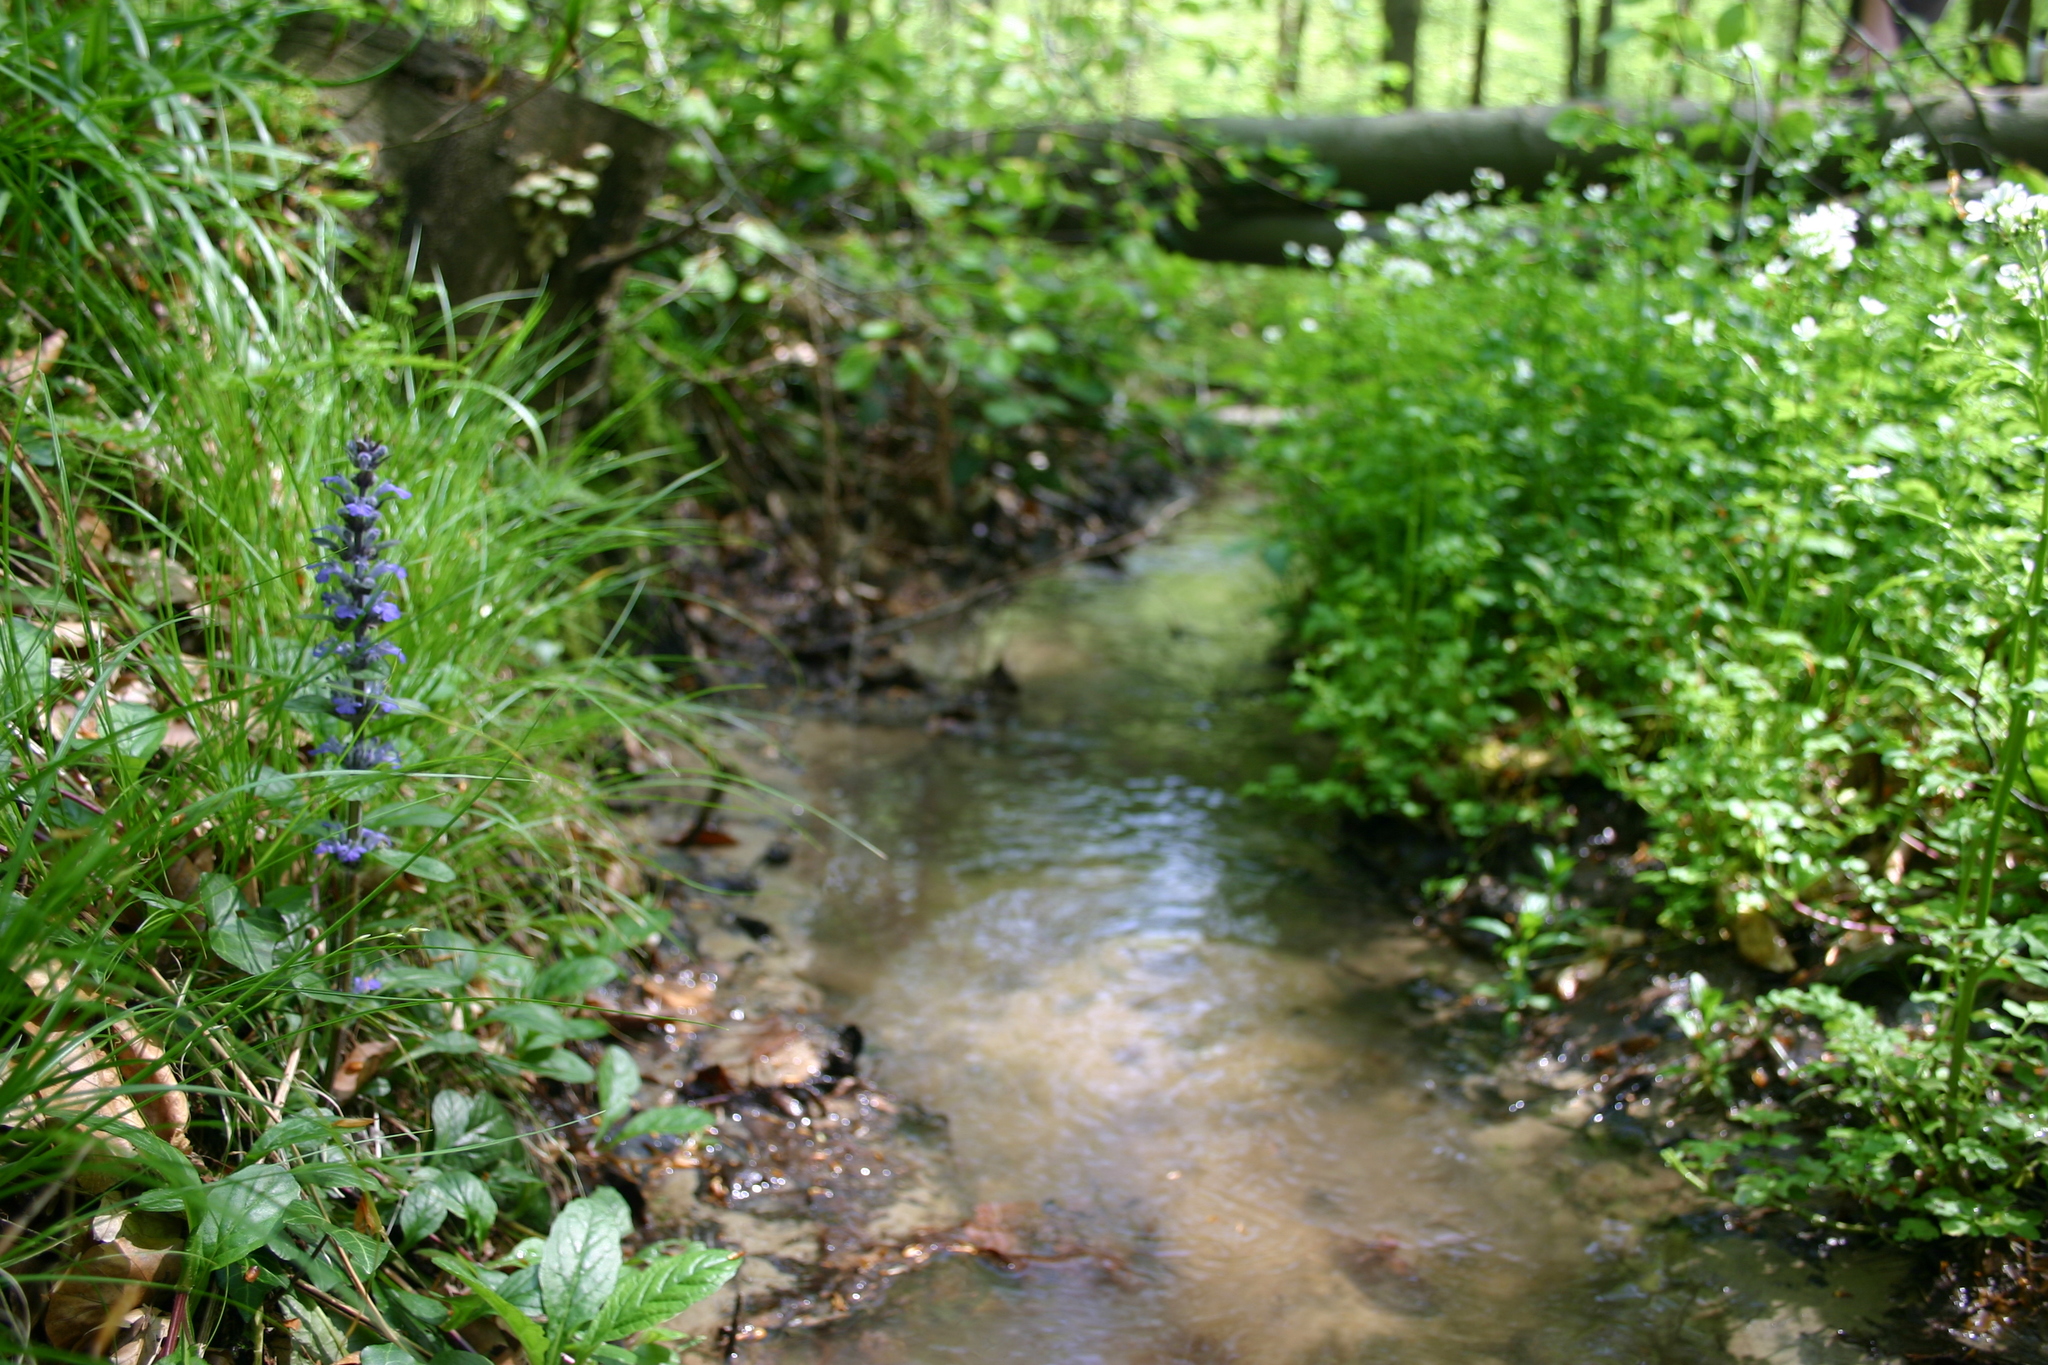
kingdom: Plantae
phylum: Tracheophyta
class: Magnoliopsida
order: Brassicales
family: Brassicaceae
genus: Cardamine
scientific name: Cardamine amara
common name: Large bitter-cress
